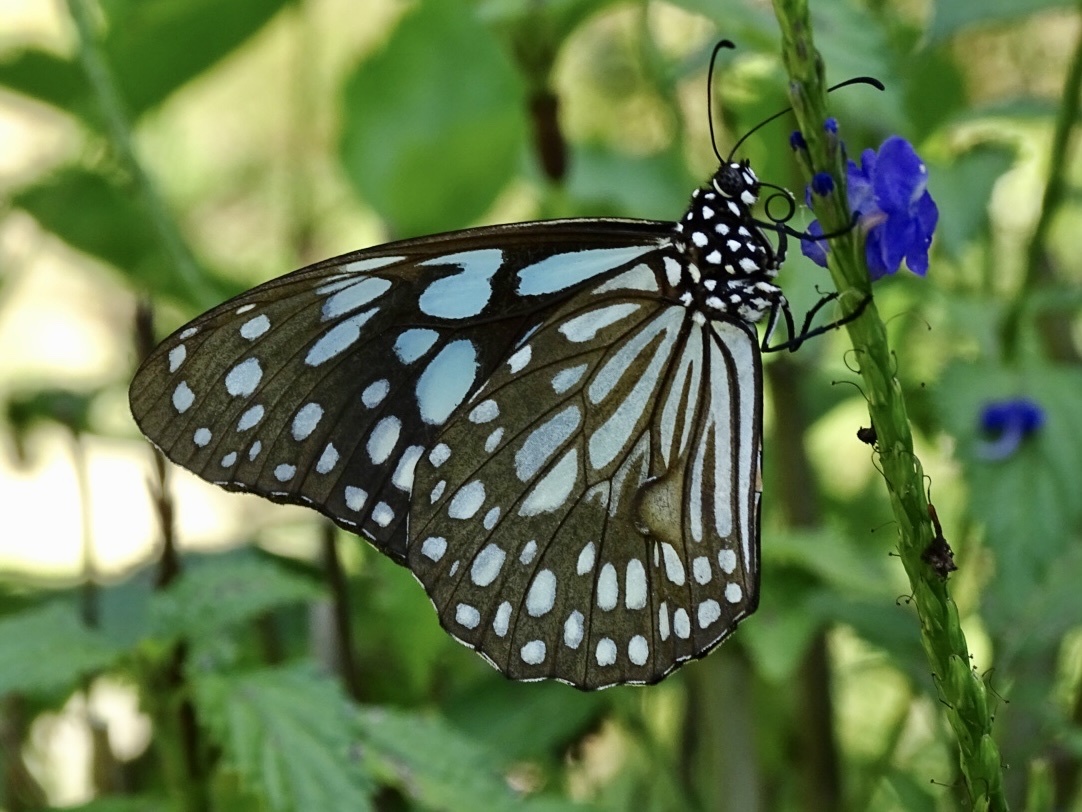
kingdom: Animalia
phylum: Arthropoda
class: Insecta
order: Lepidoptera
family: Nymphalidae
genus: Tirumala
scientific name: Tirumala limniace
